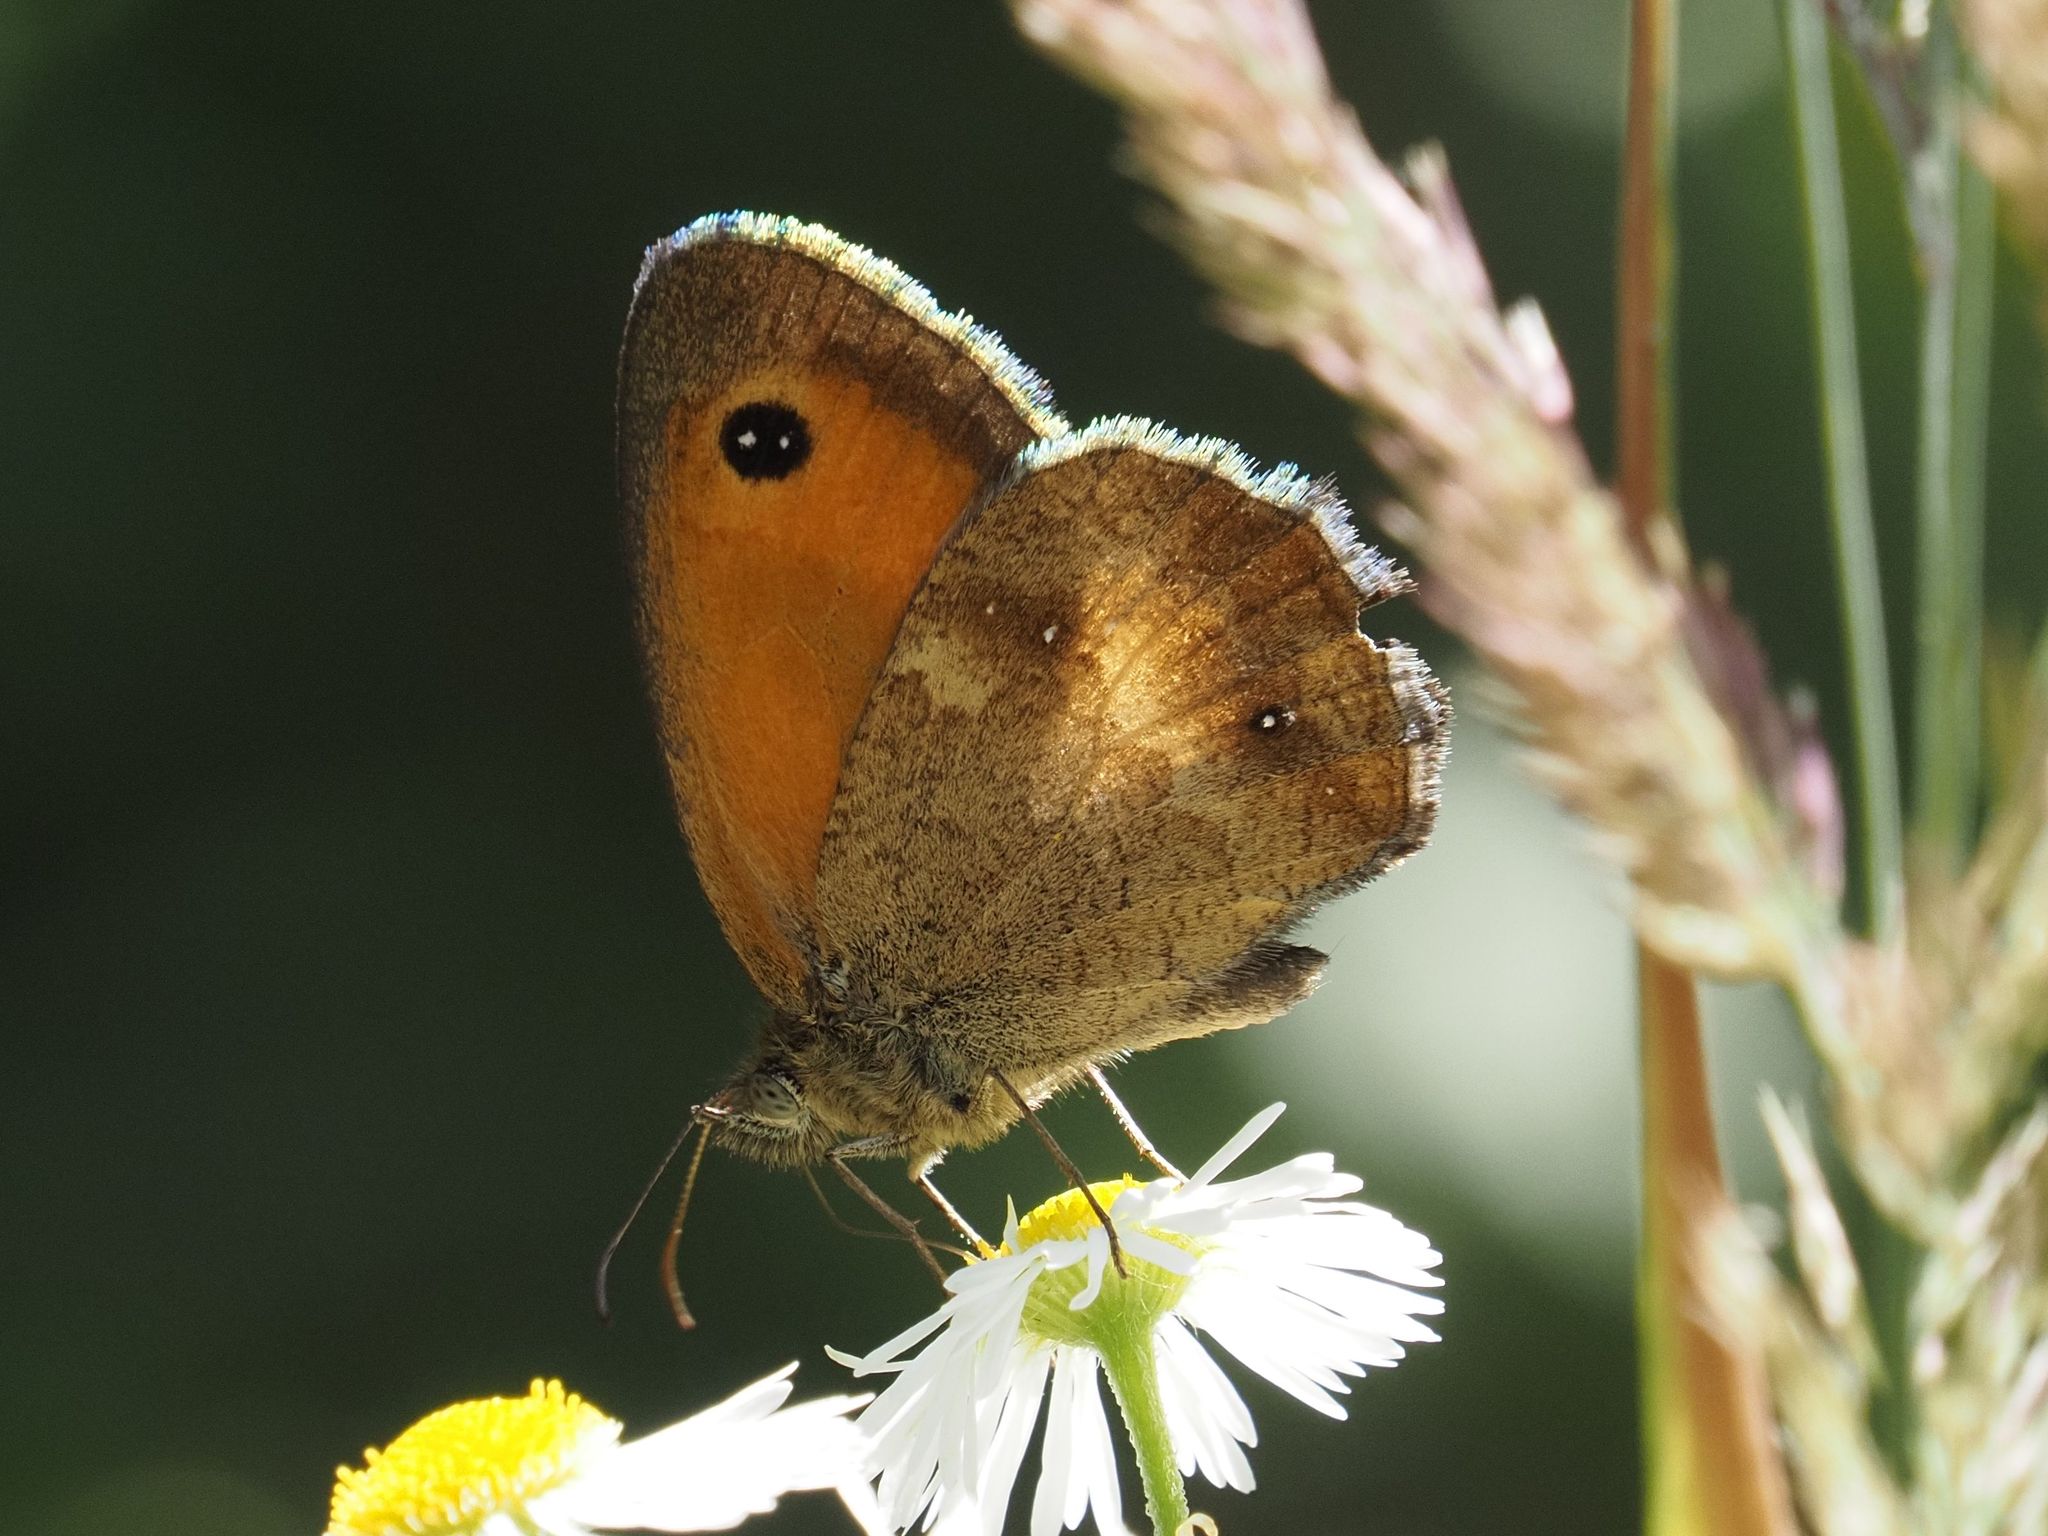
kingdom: Animalia
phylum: Arthropoda
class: Insecta
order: Lepidoptera
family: Nymphalidae
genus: Pyronia
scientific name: Pyronia tithonus
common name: Gatekeeper
